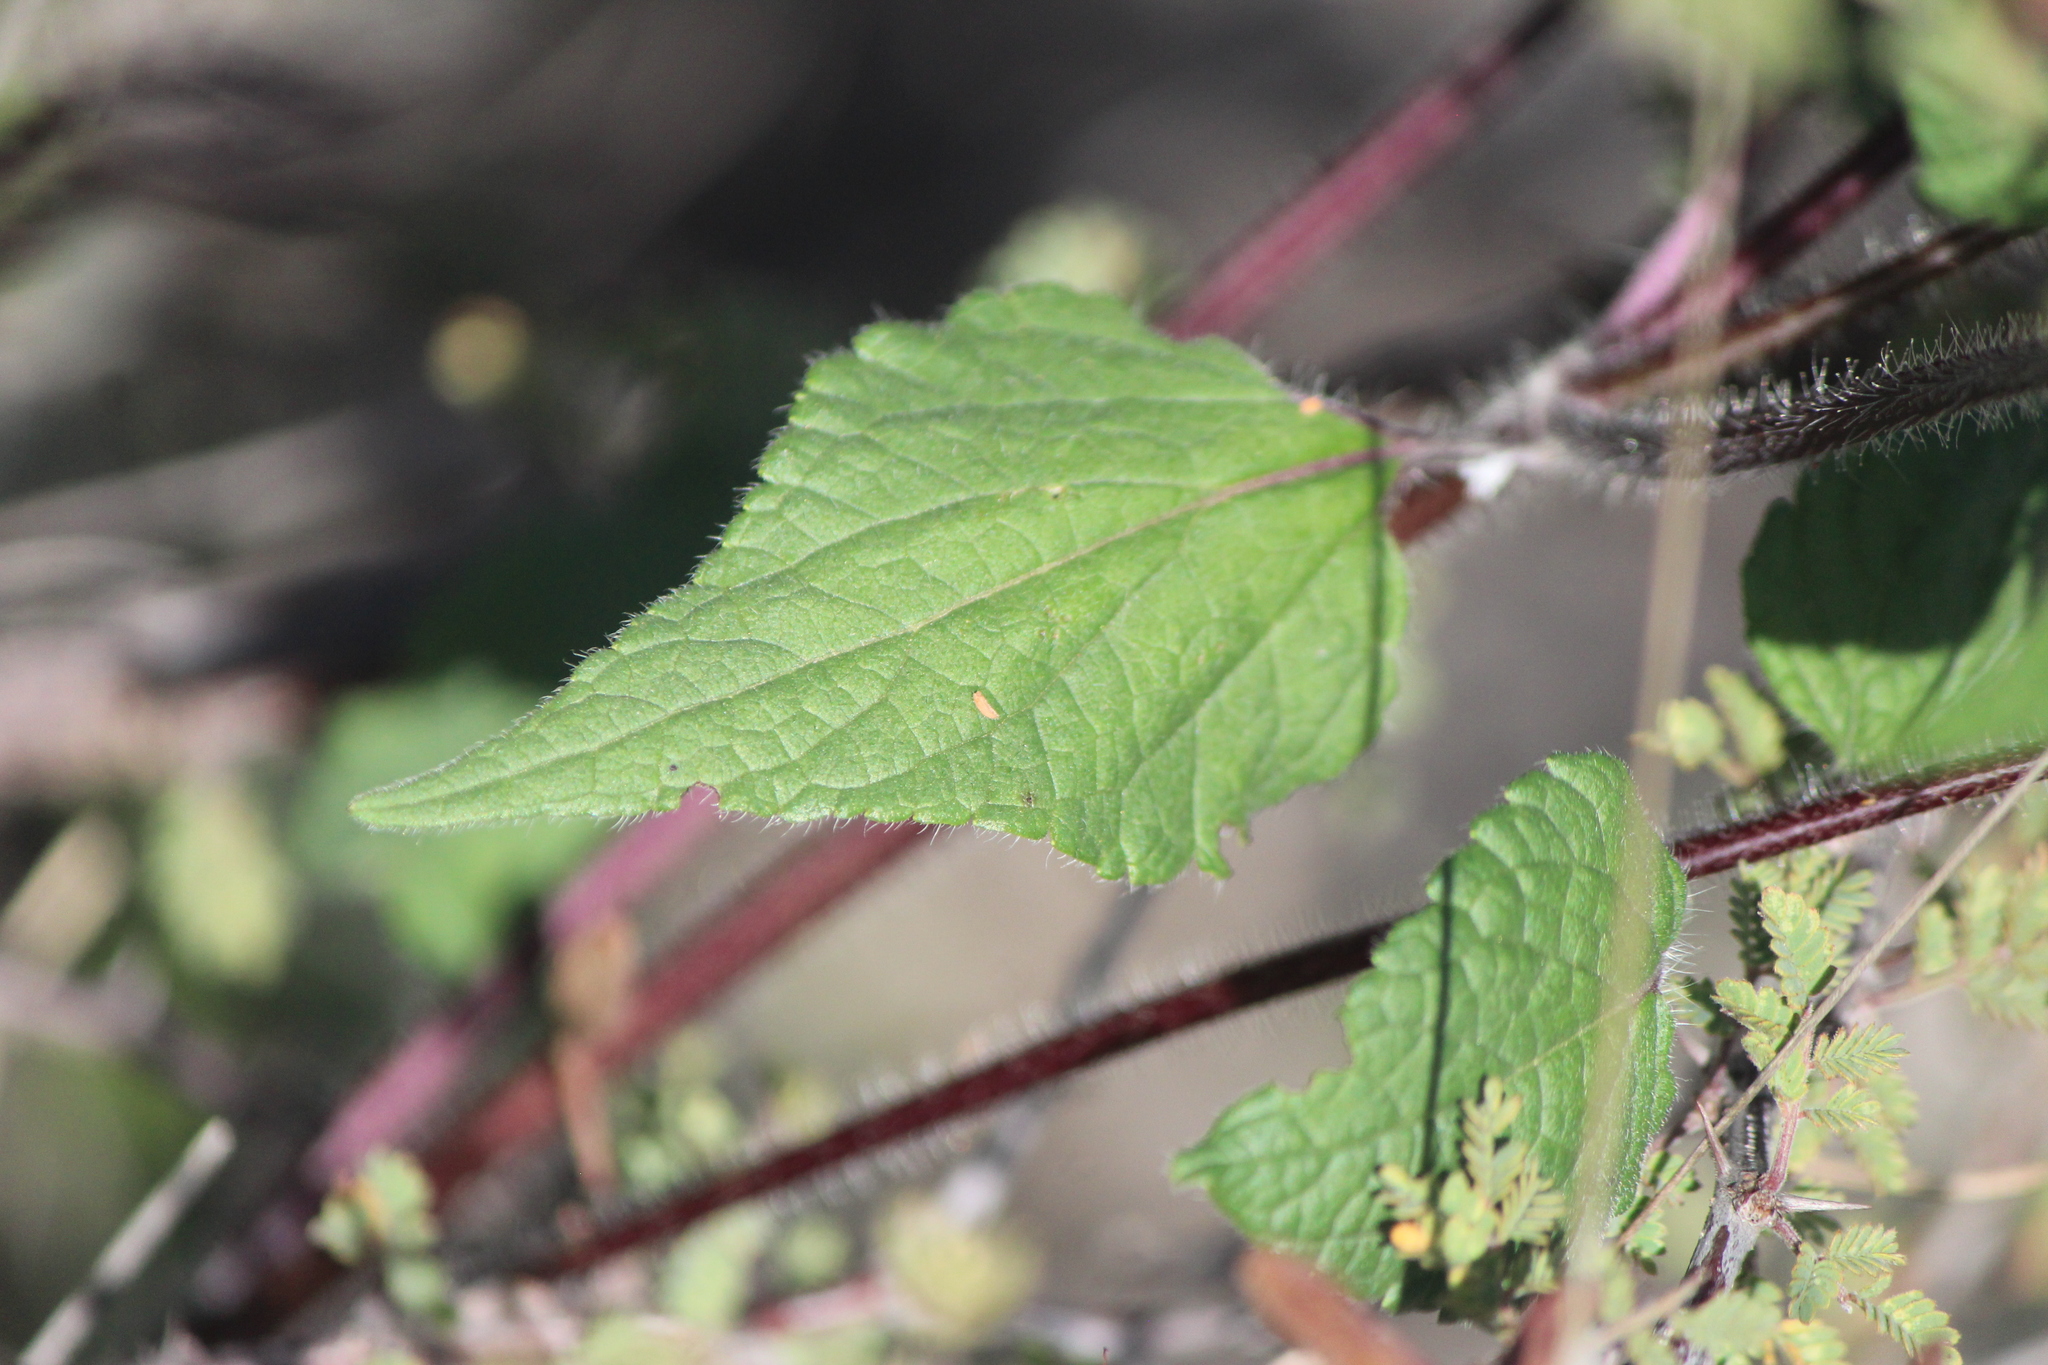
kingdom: Plantae
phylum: Tracheophyta
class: Magnoliopsida
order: Lamiales
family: Lamiaceae
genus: Salvia
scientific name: Salvia circinnata
